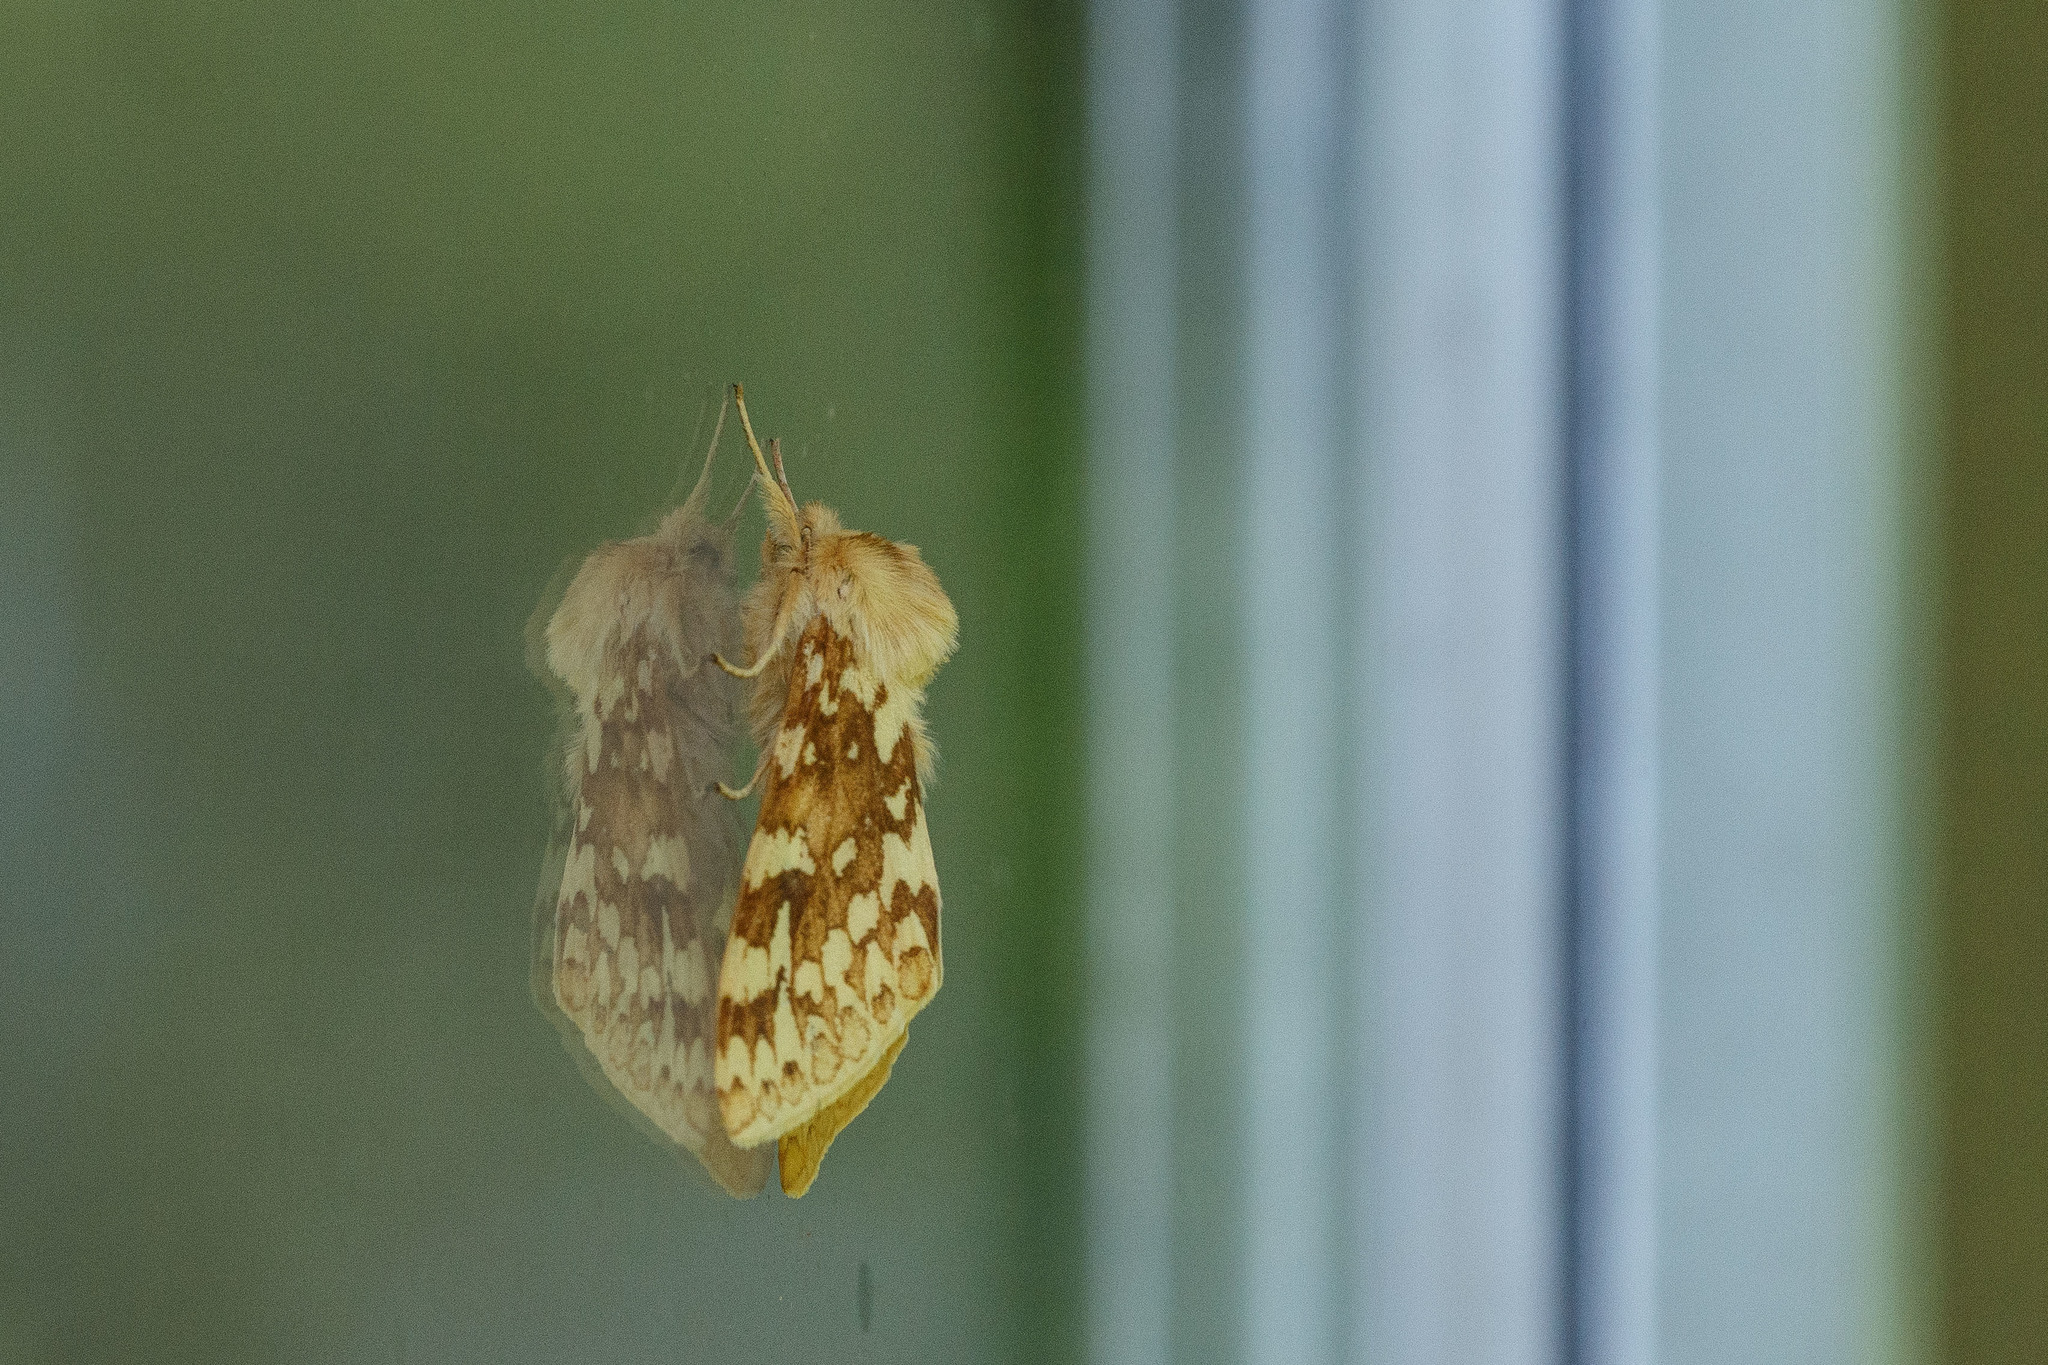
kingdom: Animalia
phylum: Arthropoda
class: Insecta
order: Lepidoptera
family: Erebidae
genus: Lophocampa
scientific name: Lophocampa maculata
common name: Spotted tussock moth
